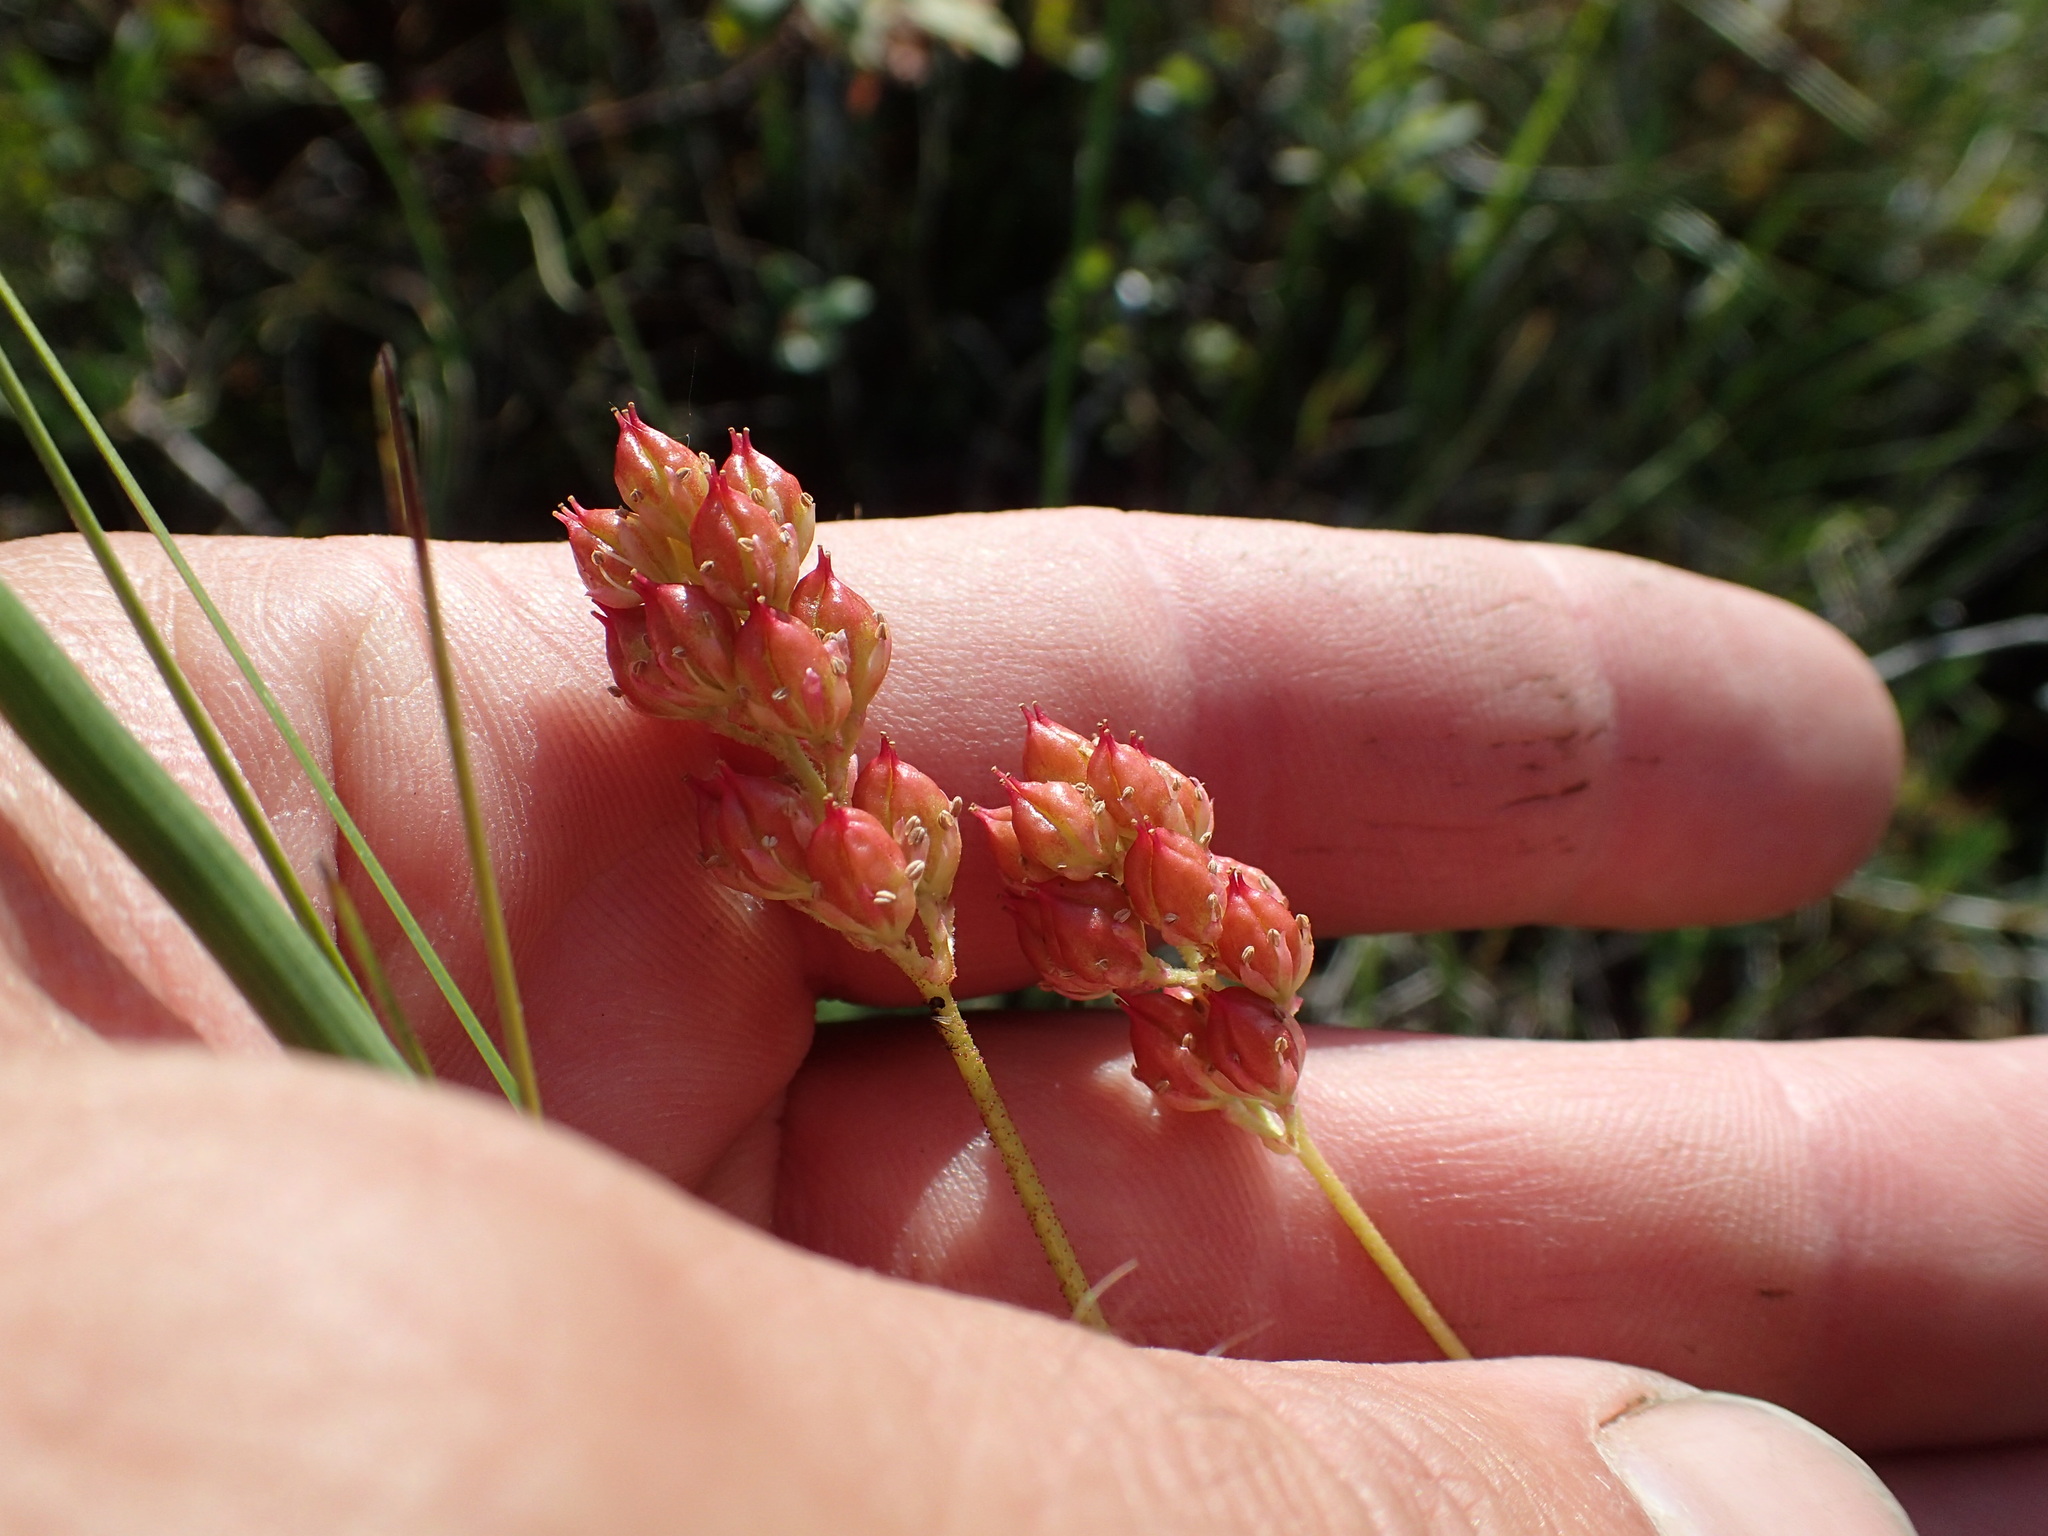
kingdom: Plantae
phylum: Tracheophyta
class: Liliopsida
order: Alismatales
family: Tofieldiaceae
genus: Triantha
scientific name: Triantha glutinosa
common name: Glutinous tofieldia
